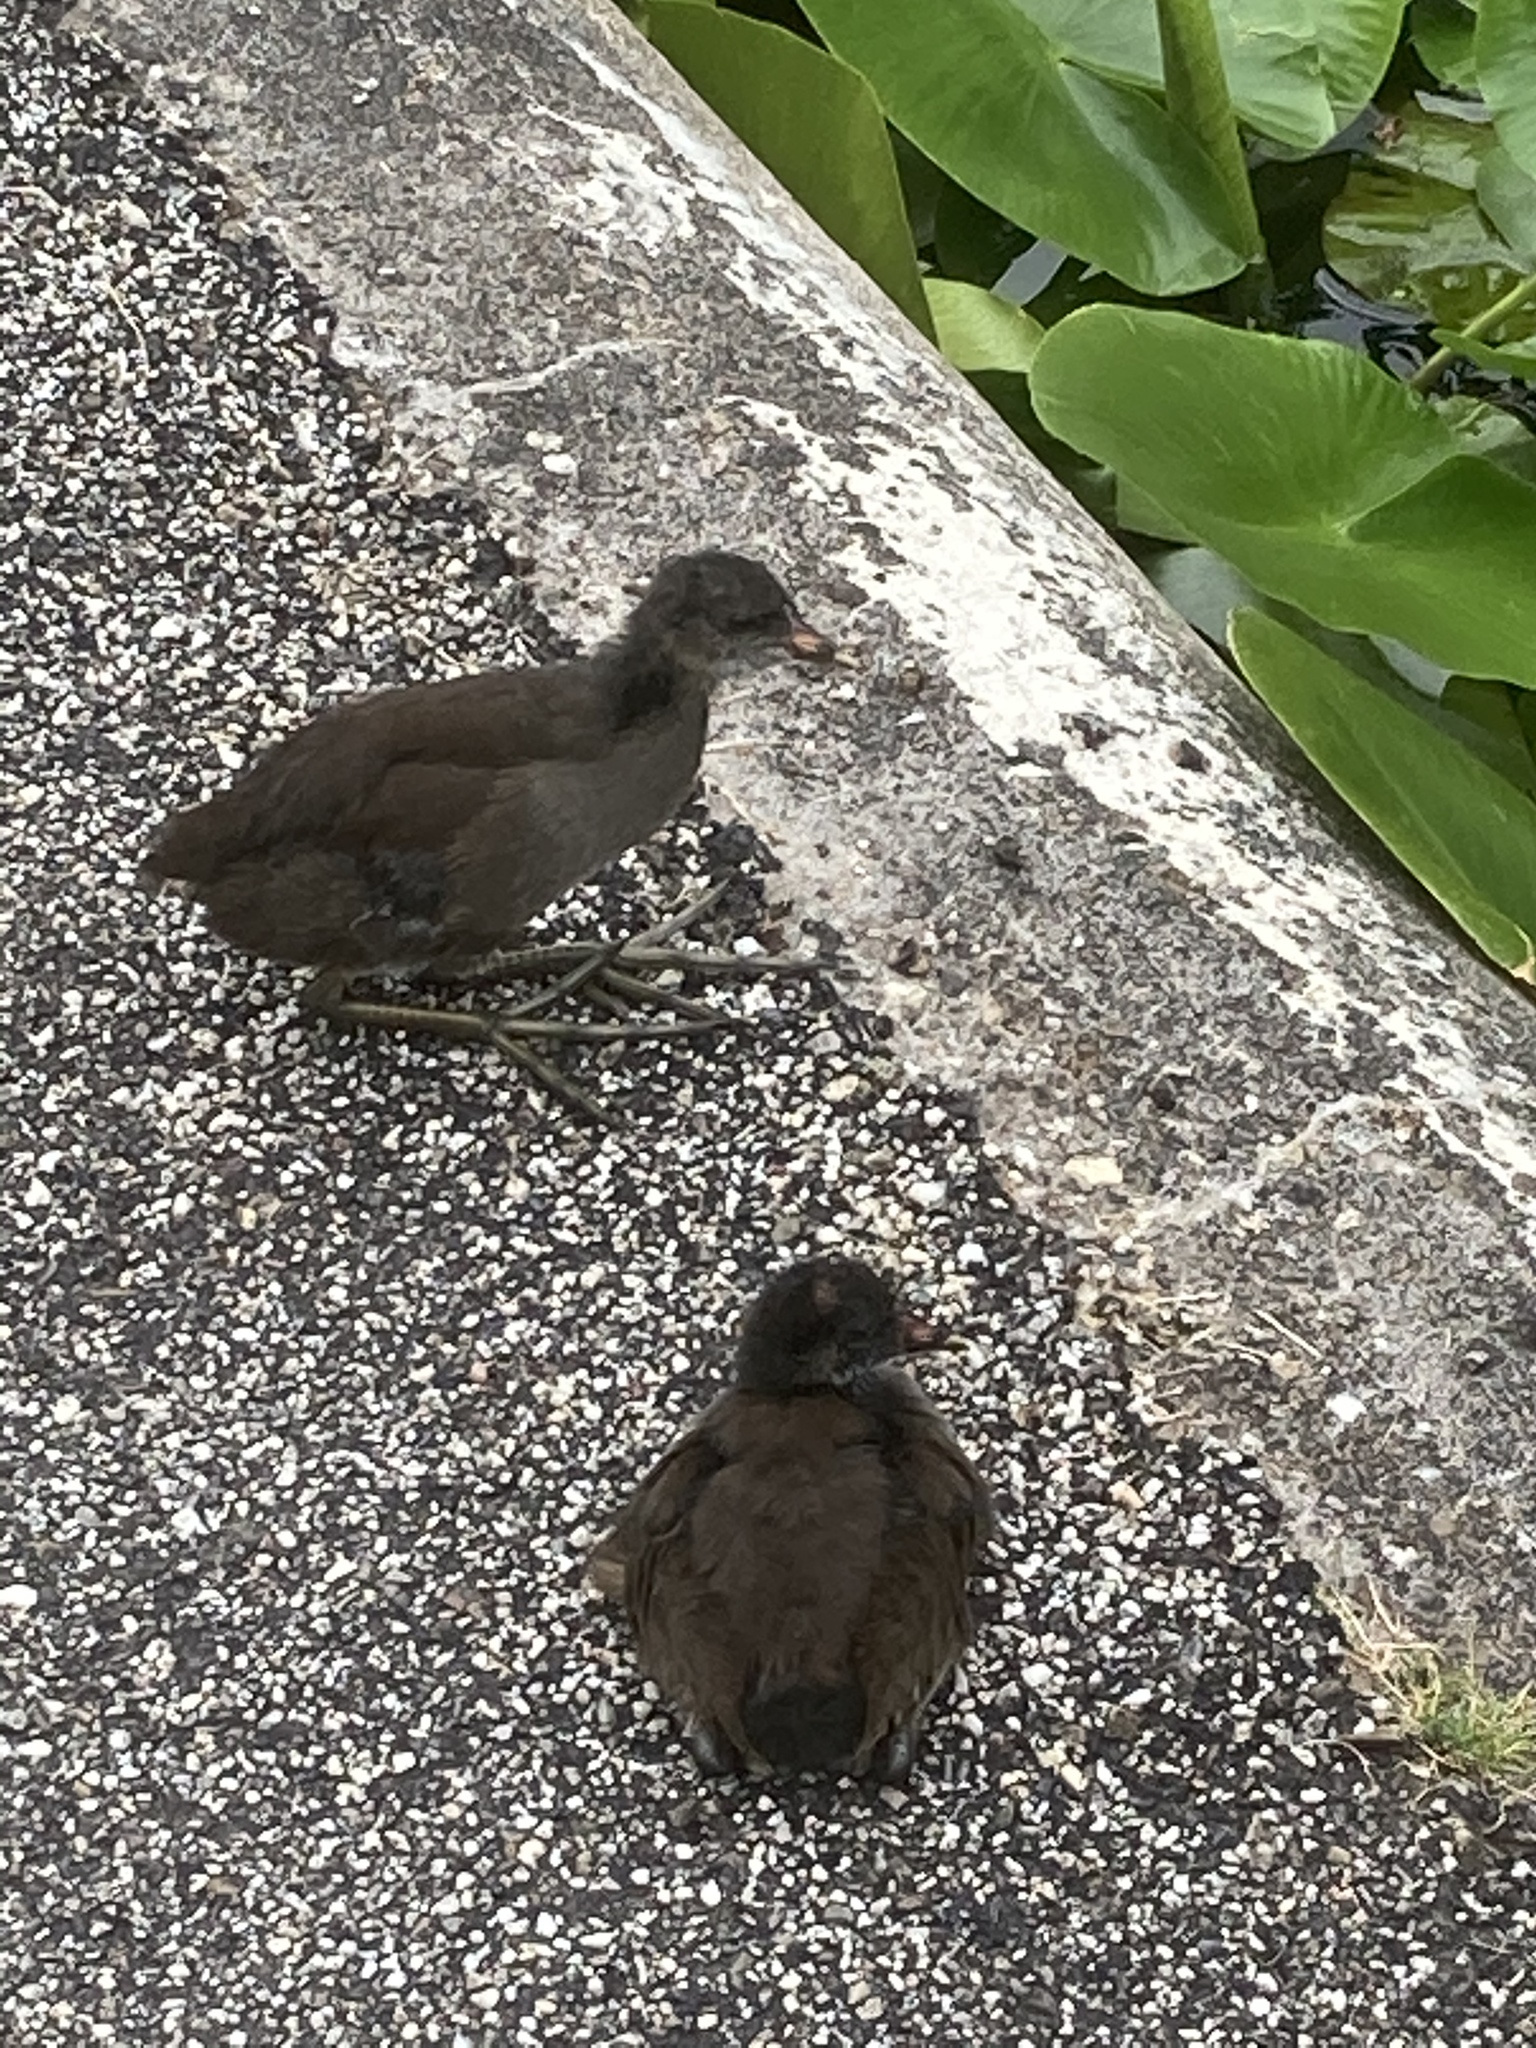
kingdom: Animalia
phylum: Chordata
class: Aves
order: Gruiformes
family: Rallidae
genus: Gallinula
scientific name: Gallinula chloropus
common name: Common moorhen
